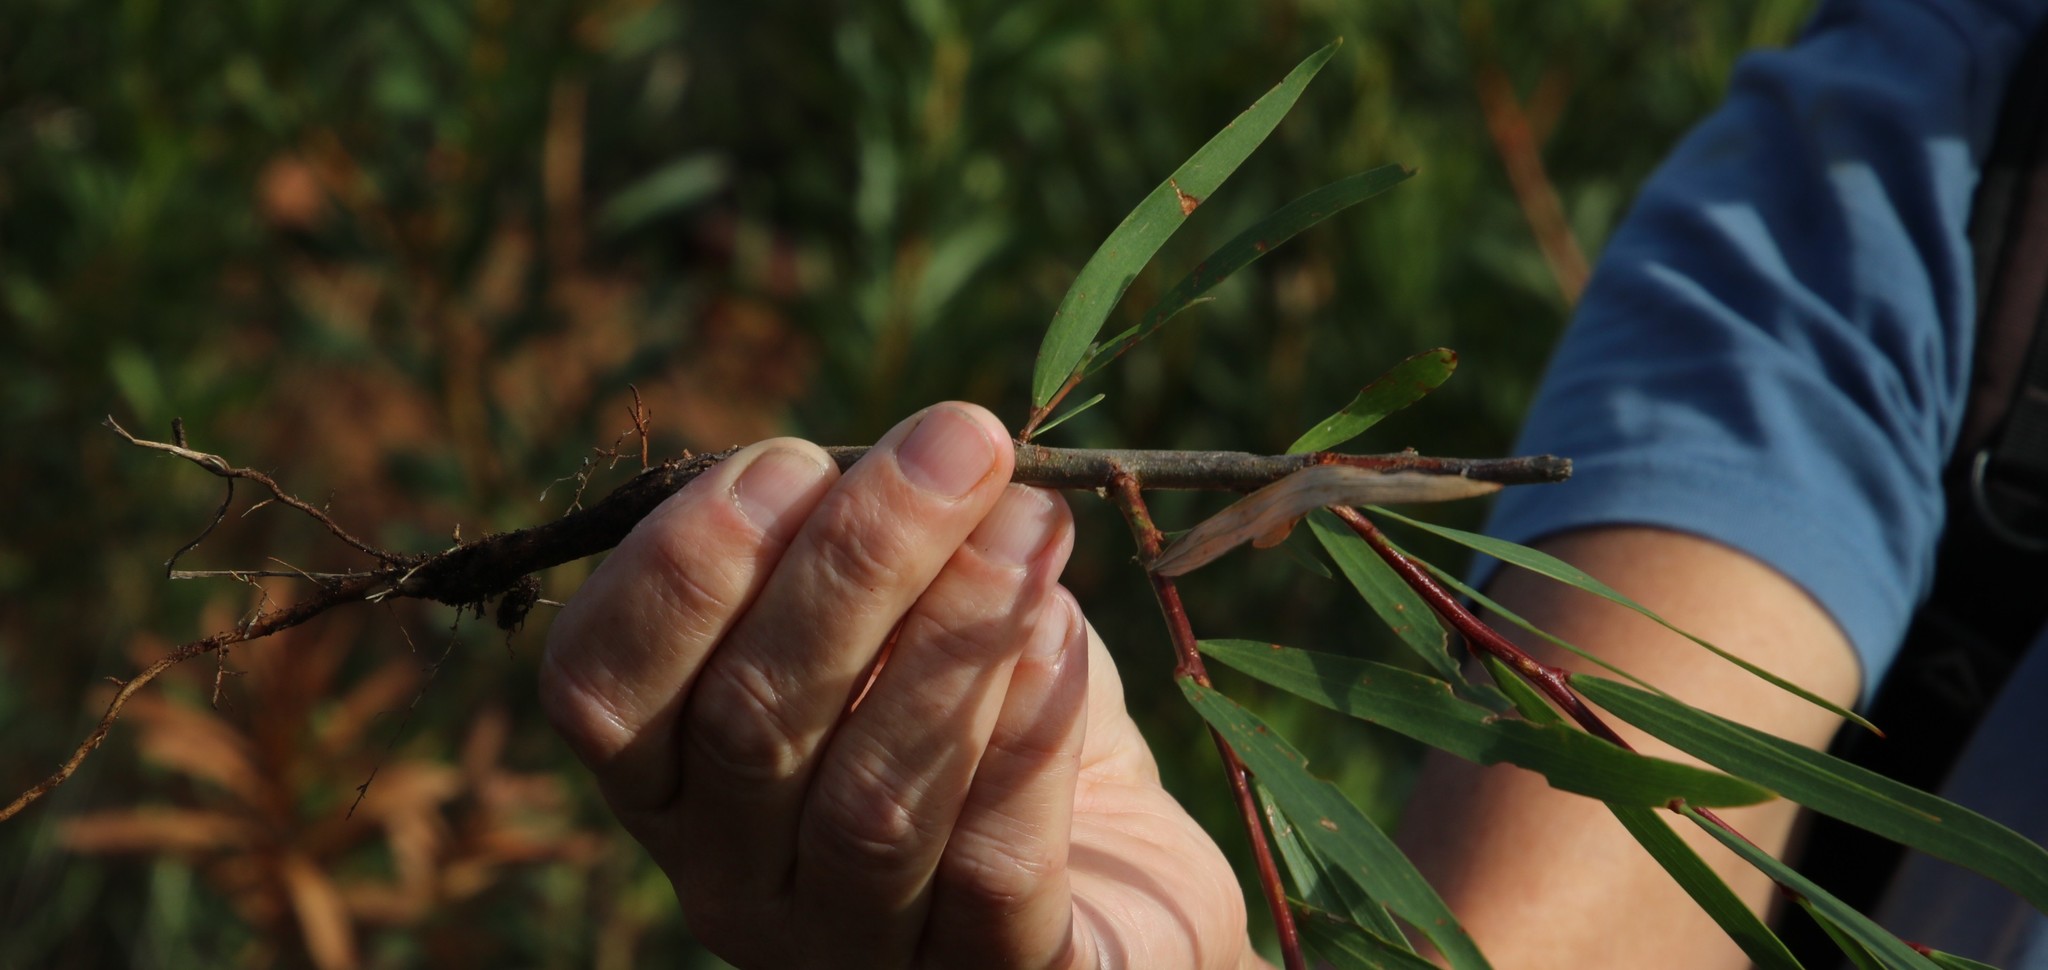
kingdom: Plantae
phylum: Tracheophyta
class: Magnoliopsida
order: Fabales
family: Fabaceae
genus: Acacia
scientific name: Acacia longifolia
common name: Sydney golden wattle
